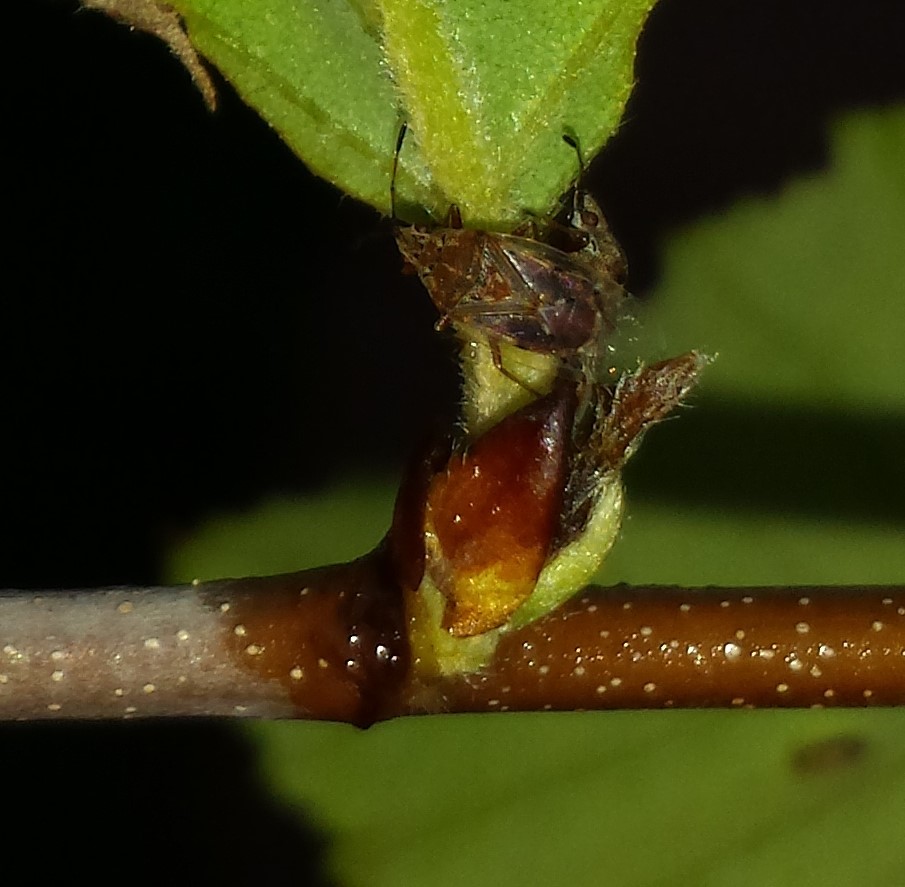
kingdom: Animalia
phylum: Arthropoda
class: Insecta
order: Hemiptera
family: Lygaeidae
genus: Kleidocerys
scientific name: Kleidocerys resedae
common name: Birch catkin bug
